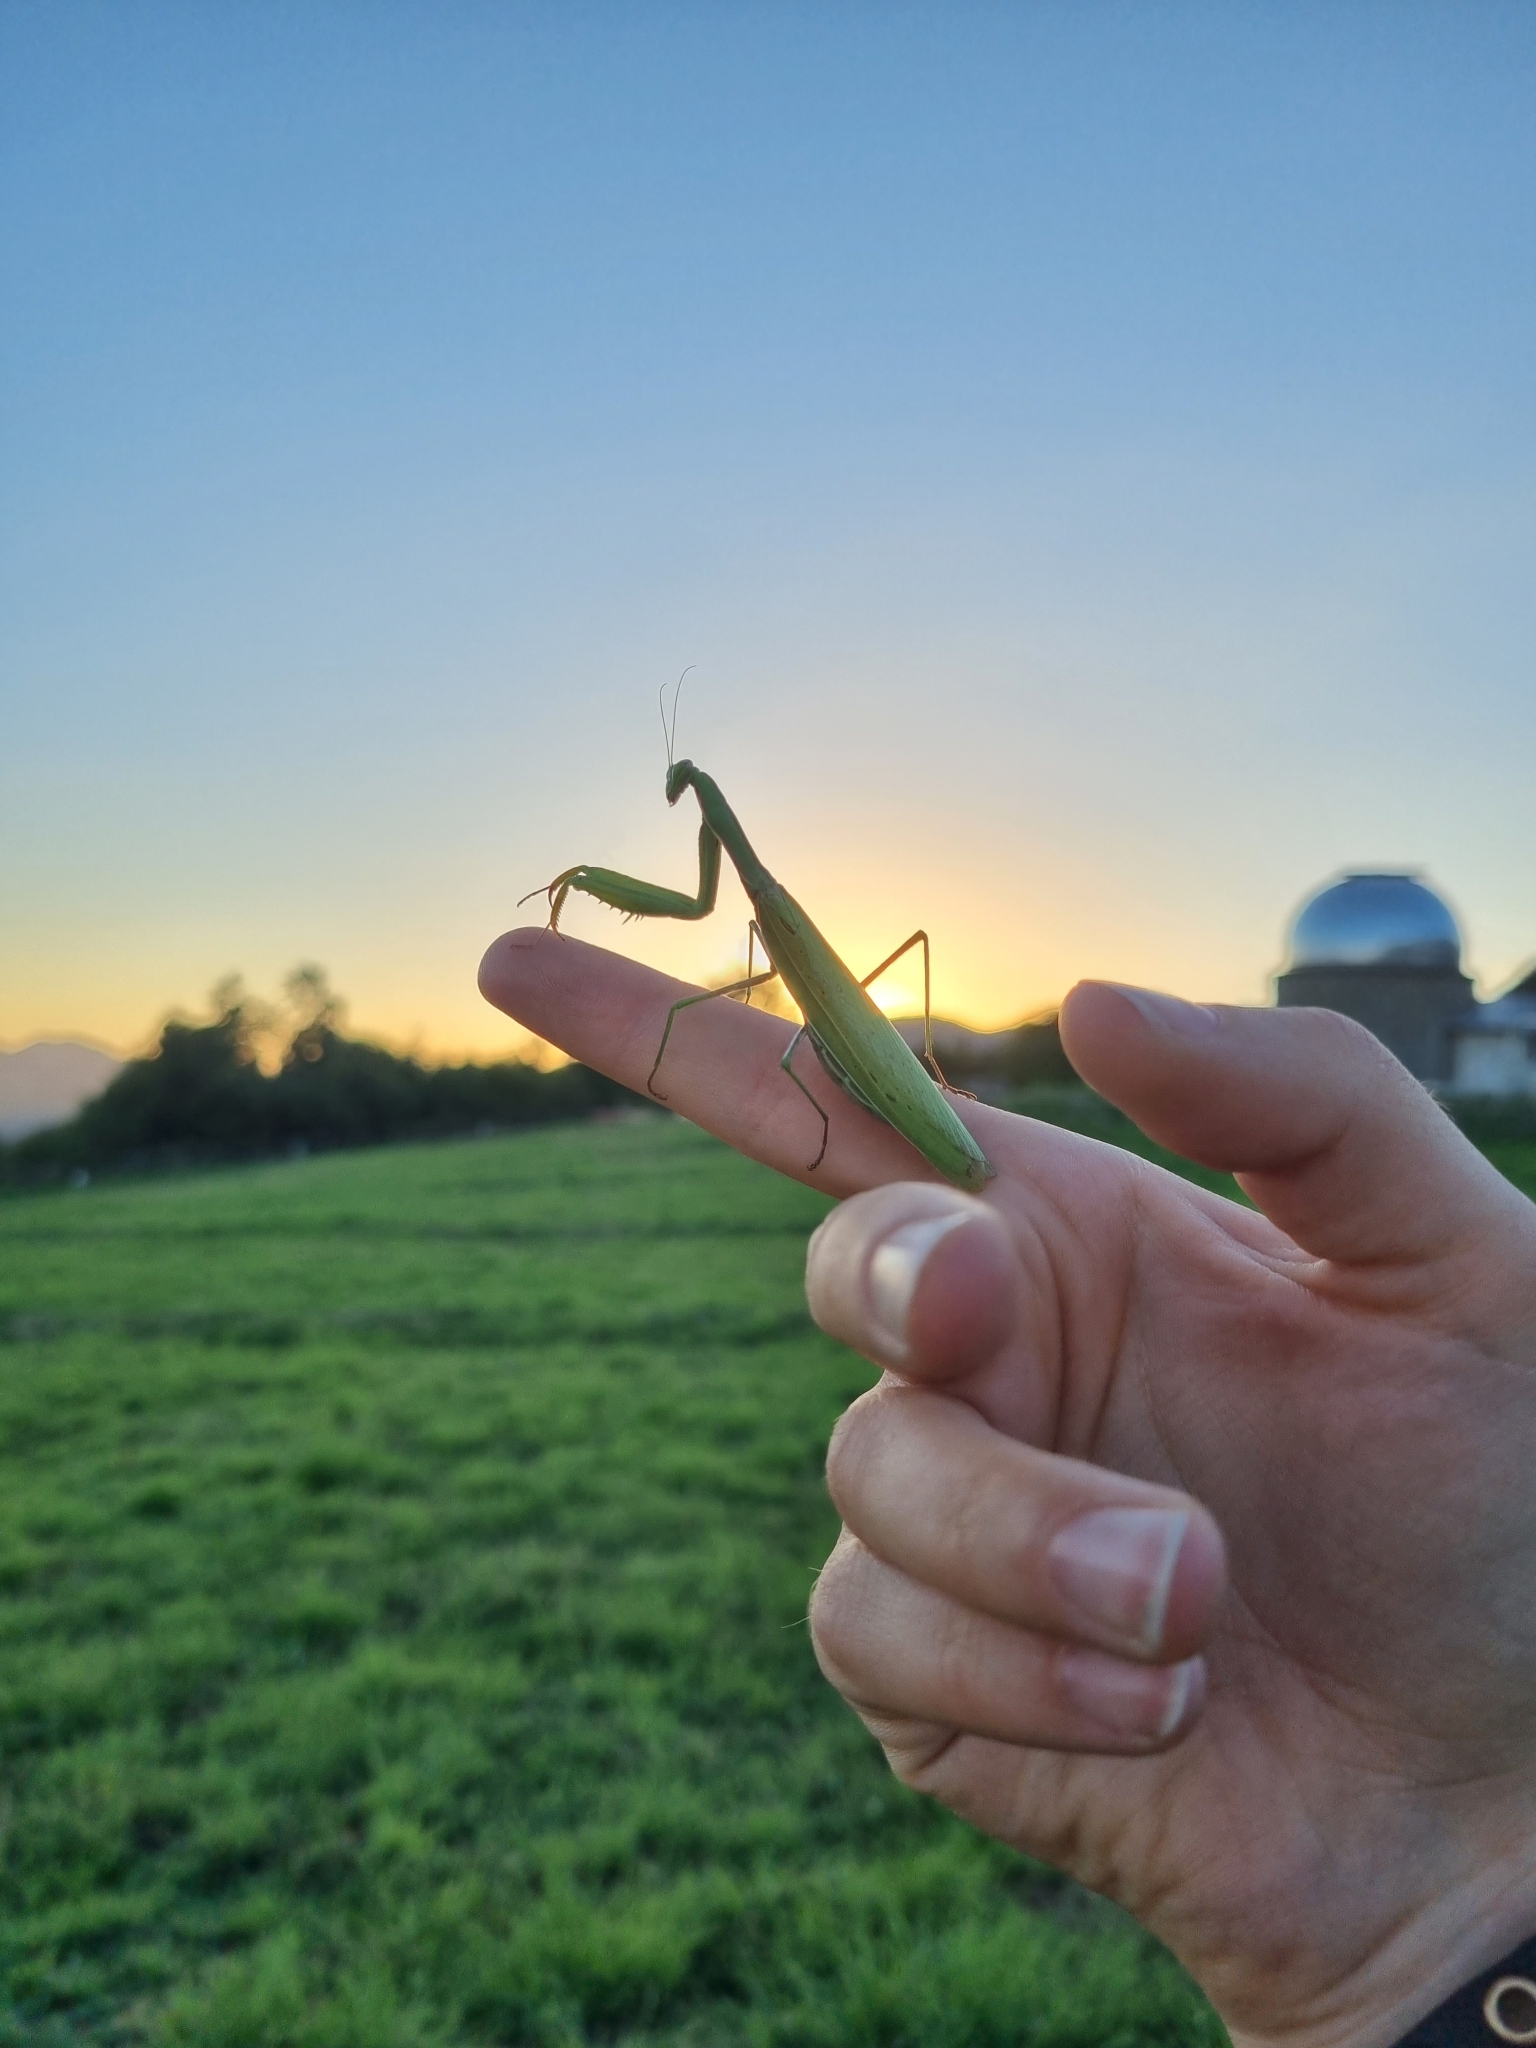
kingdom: Animalia
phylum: Arthropoda
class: Insecta
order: Mantodea
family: Mantidae
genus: Mantis
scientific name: Mantis religiosa
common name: Praying mantis
